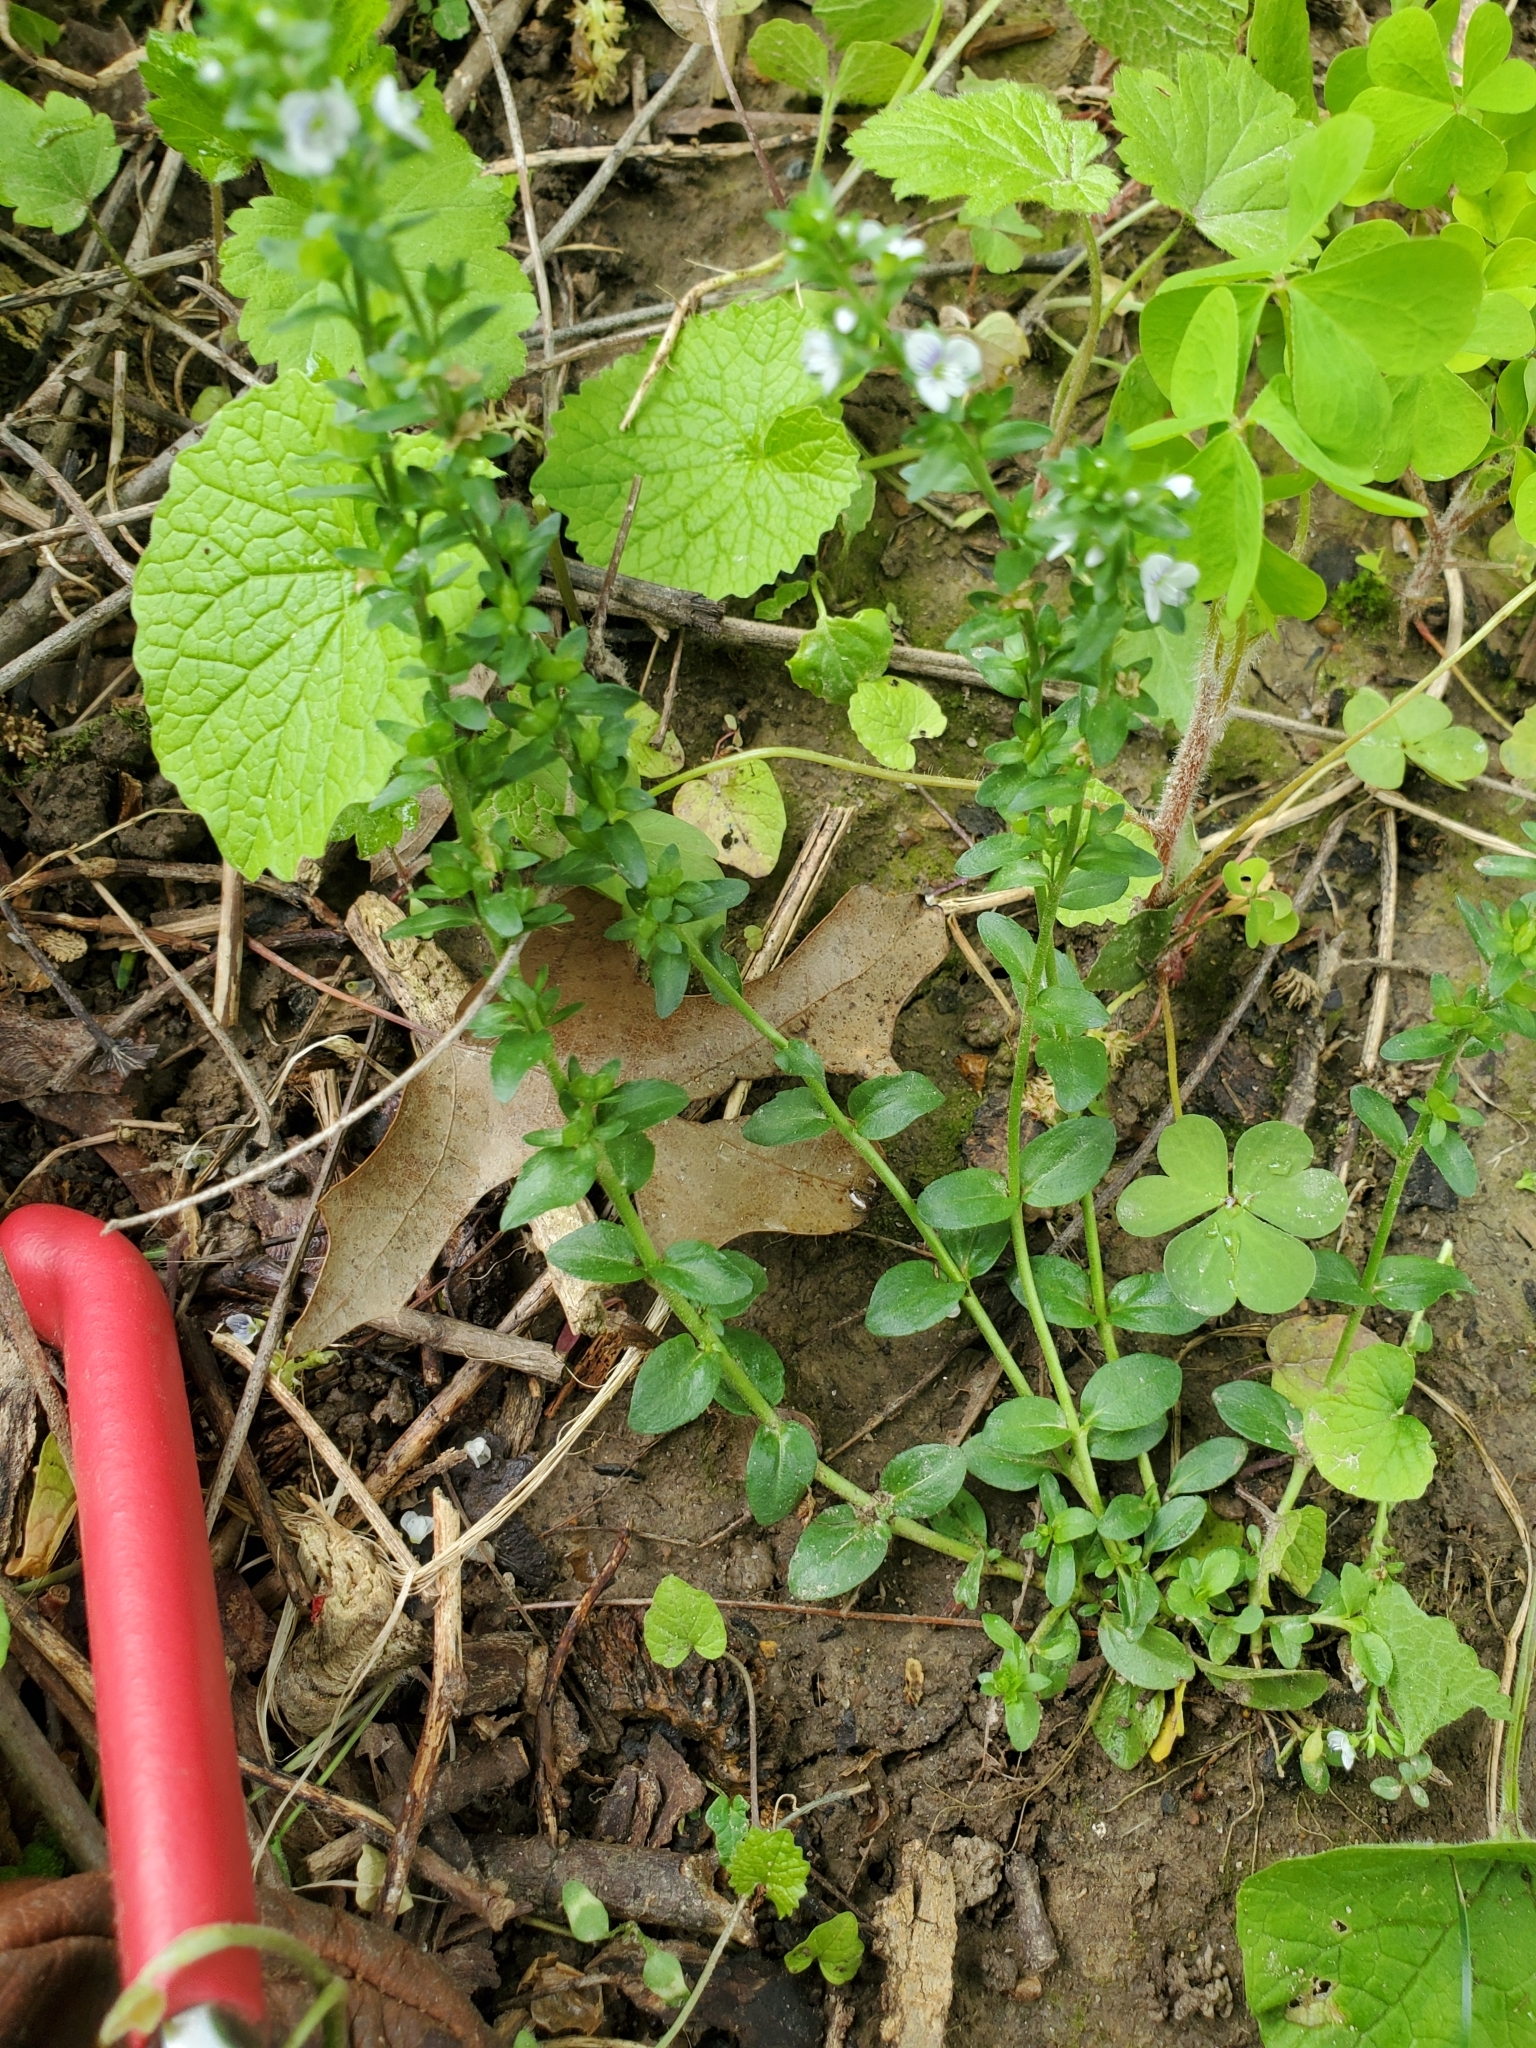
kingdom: Plantae
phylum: Tracheophyta
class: Magnoliopsida
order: Lamiales
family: Plantaginaceae
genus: Veronica
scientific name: Veronica serpyllifolia
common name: Thyme-leaved speedwell
